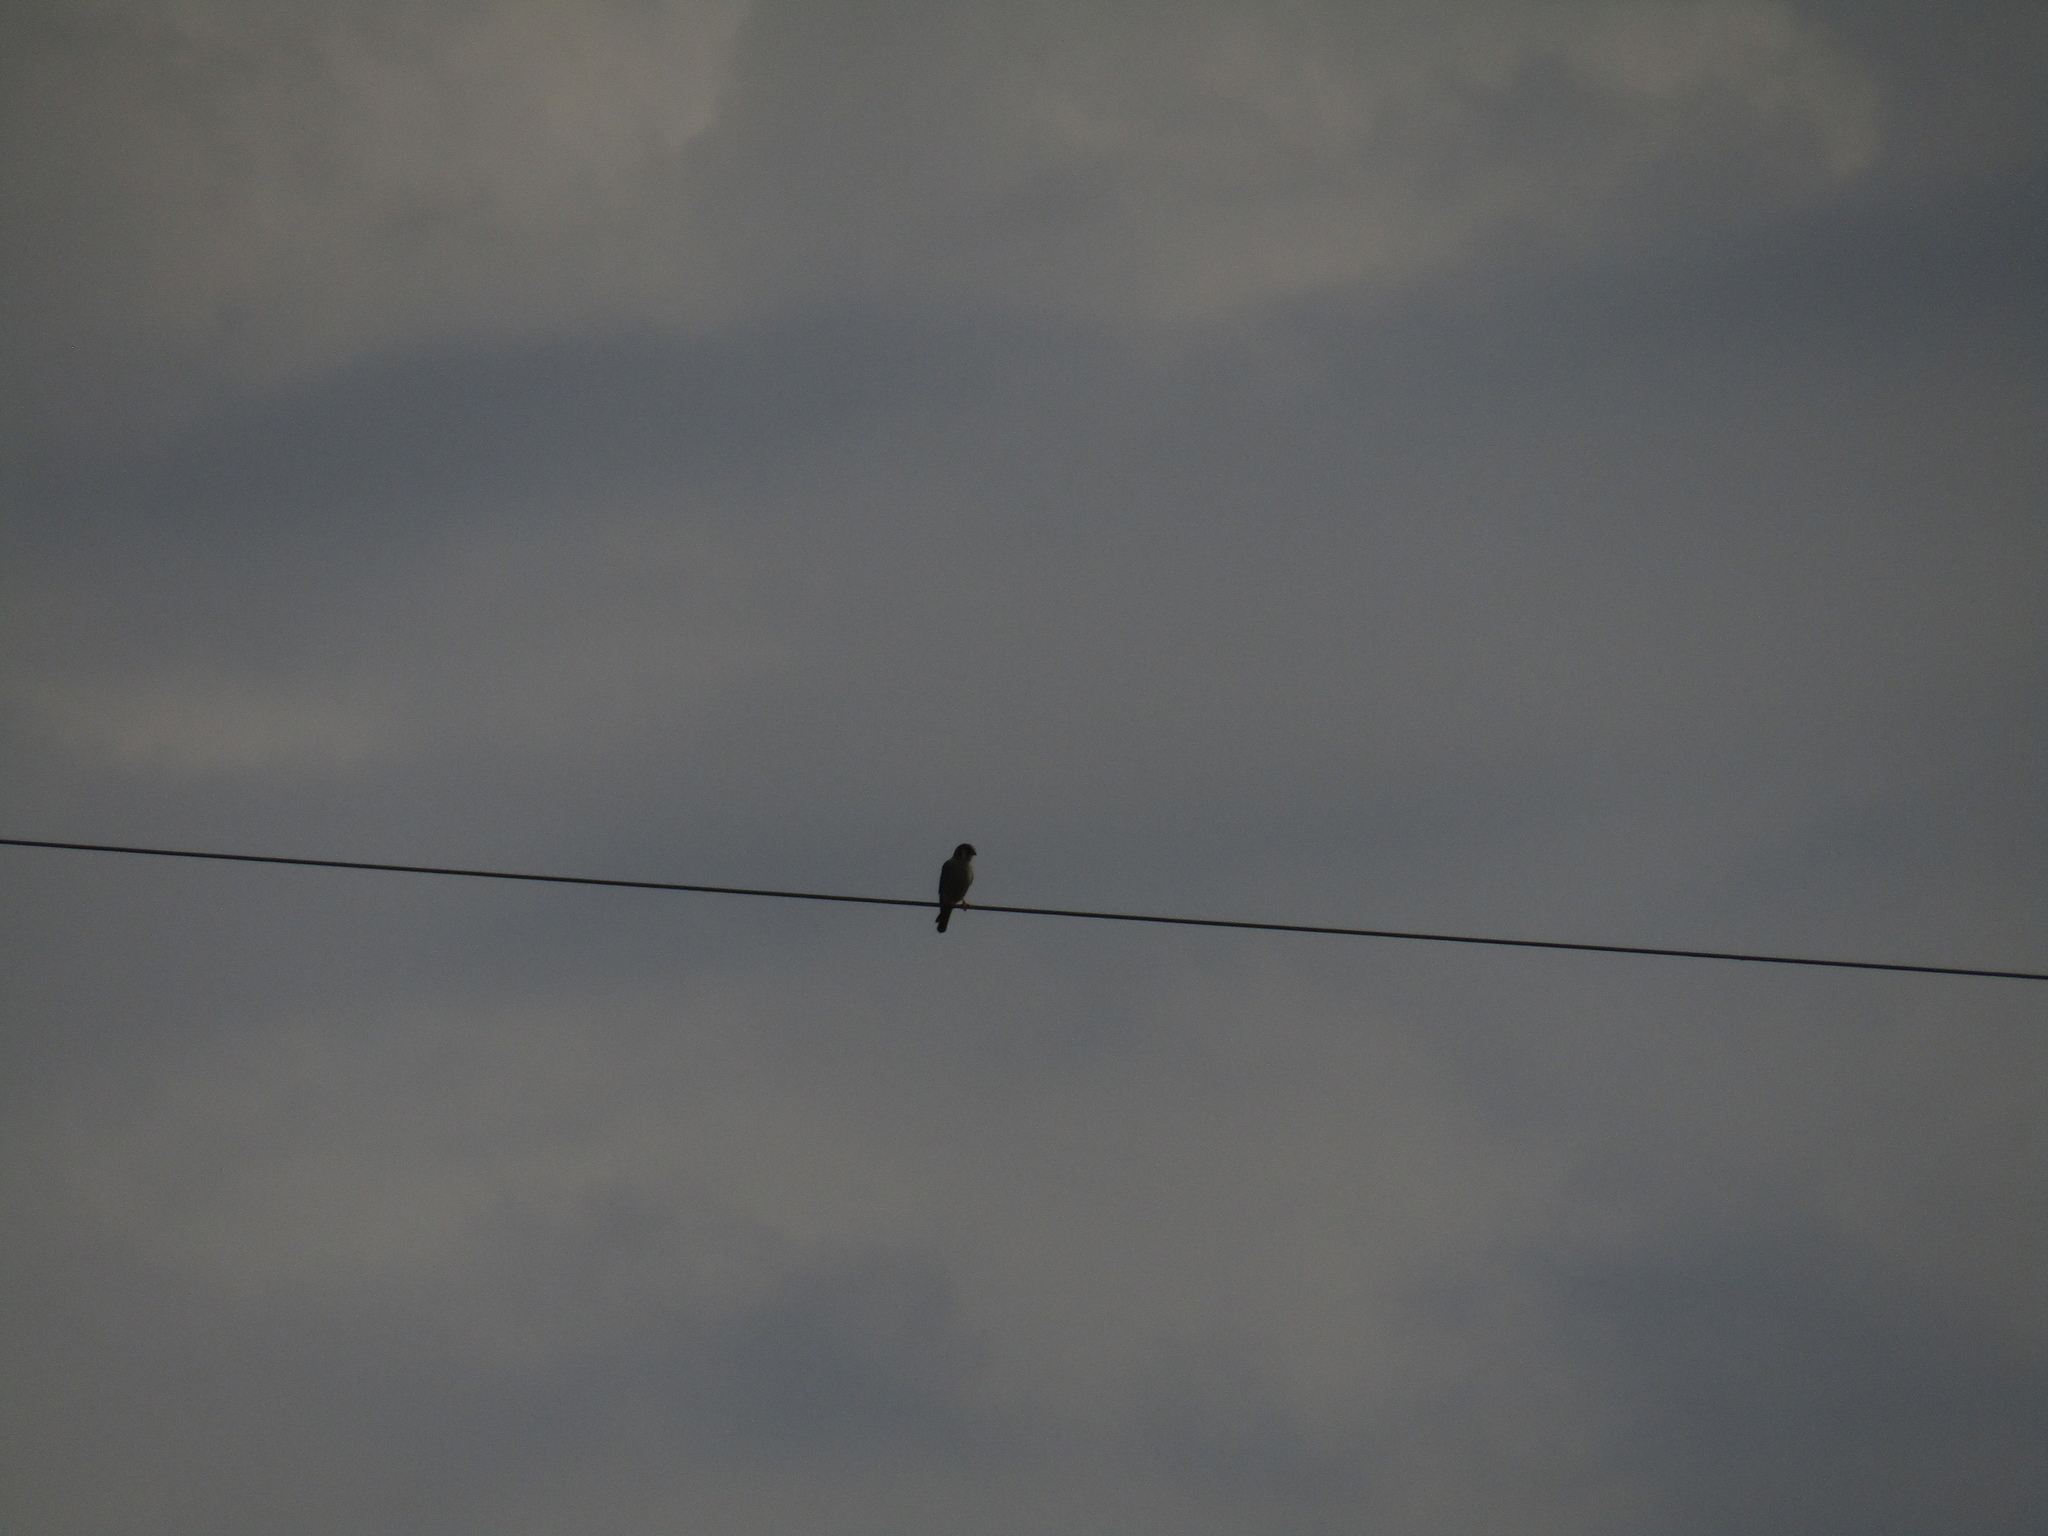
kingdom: Animalia
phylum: Chordata
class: Aves
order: Falconiformes
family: Falconidae
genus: Falco
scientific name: Falco sparverius
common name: American kestrel
